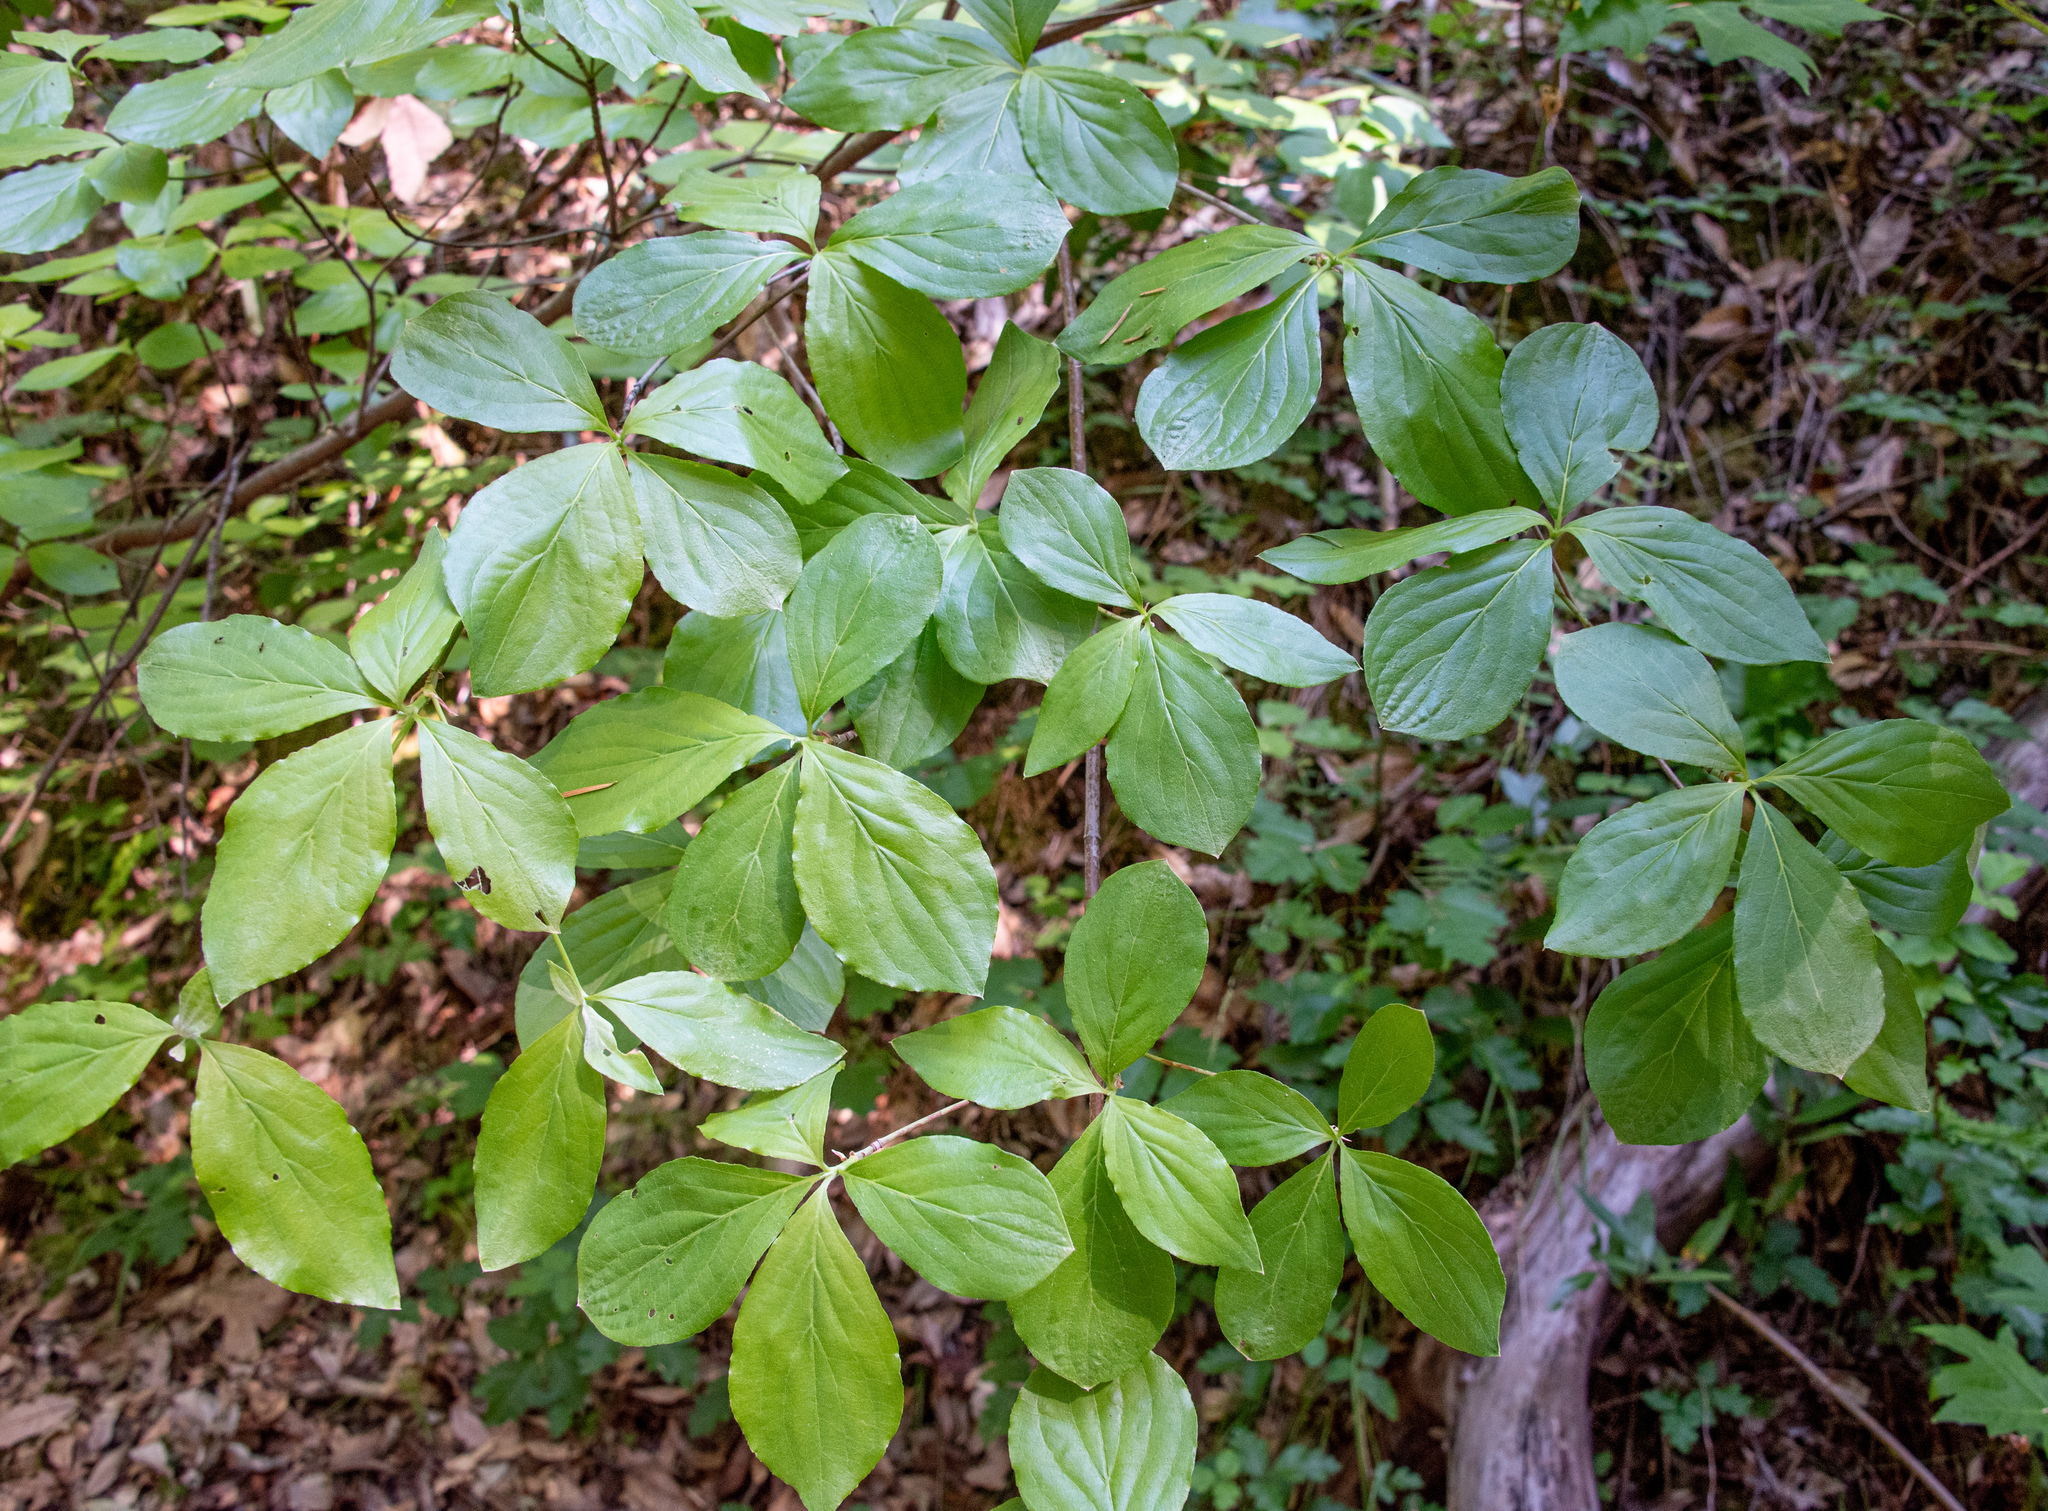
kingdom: Plantae
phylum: Tracheophyta
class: Magnoliopsida
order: Cornales
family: Cornaceae
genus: Cornus
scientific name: Cornus nuttallii
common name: Pacific dogwood
